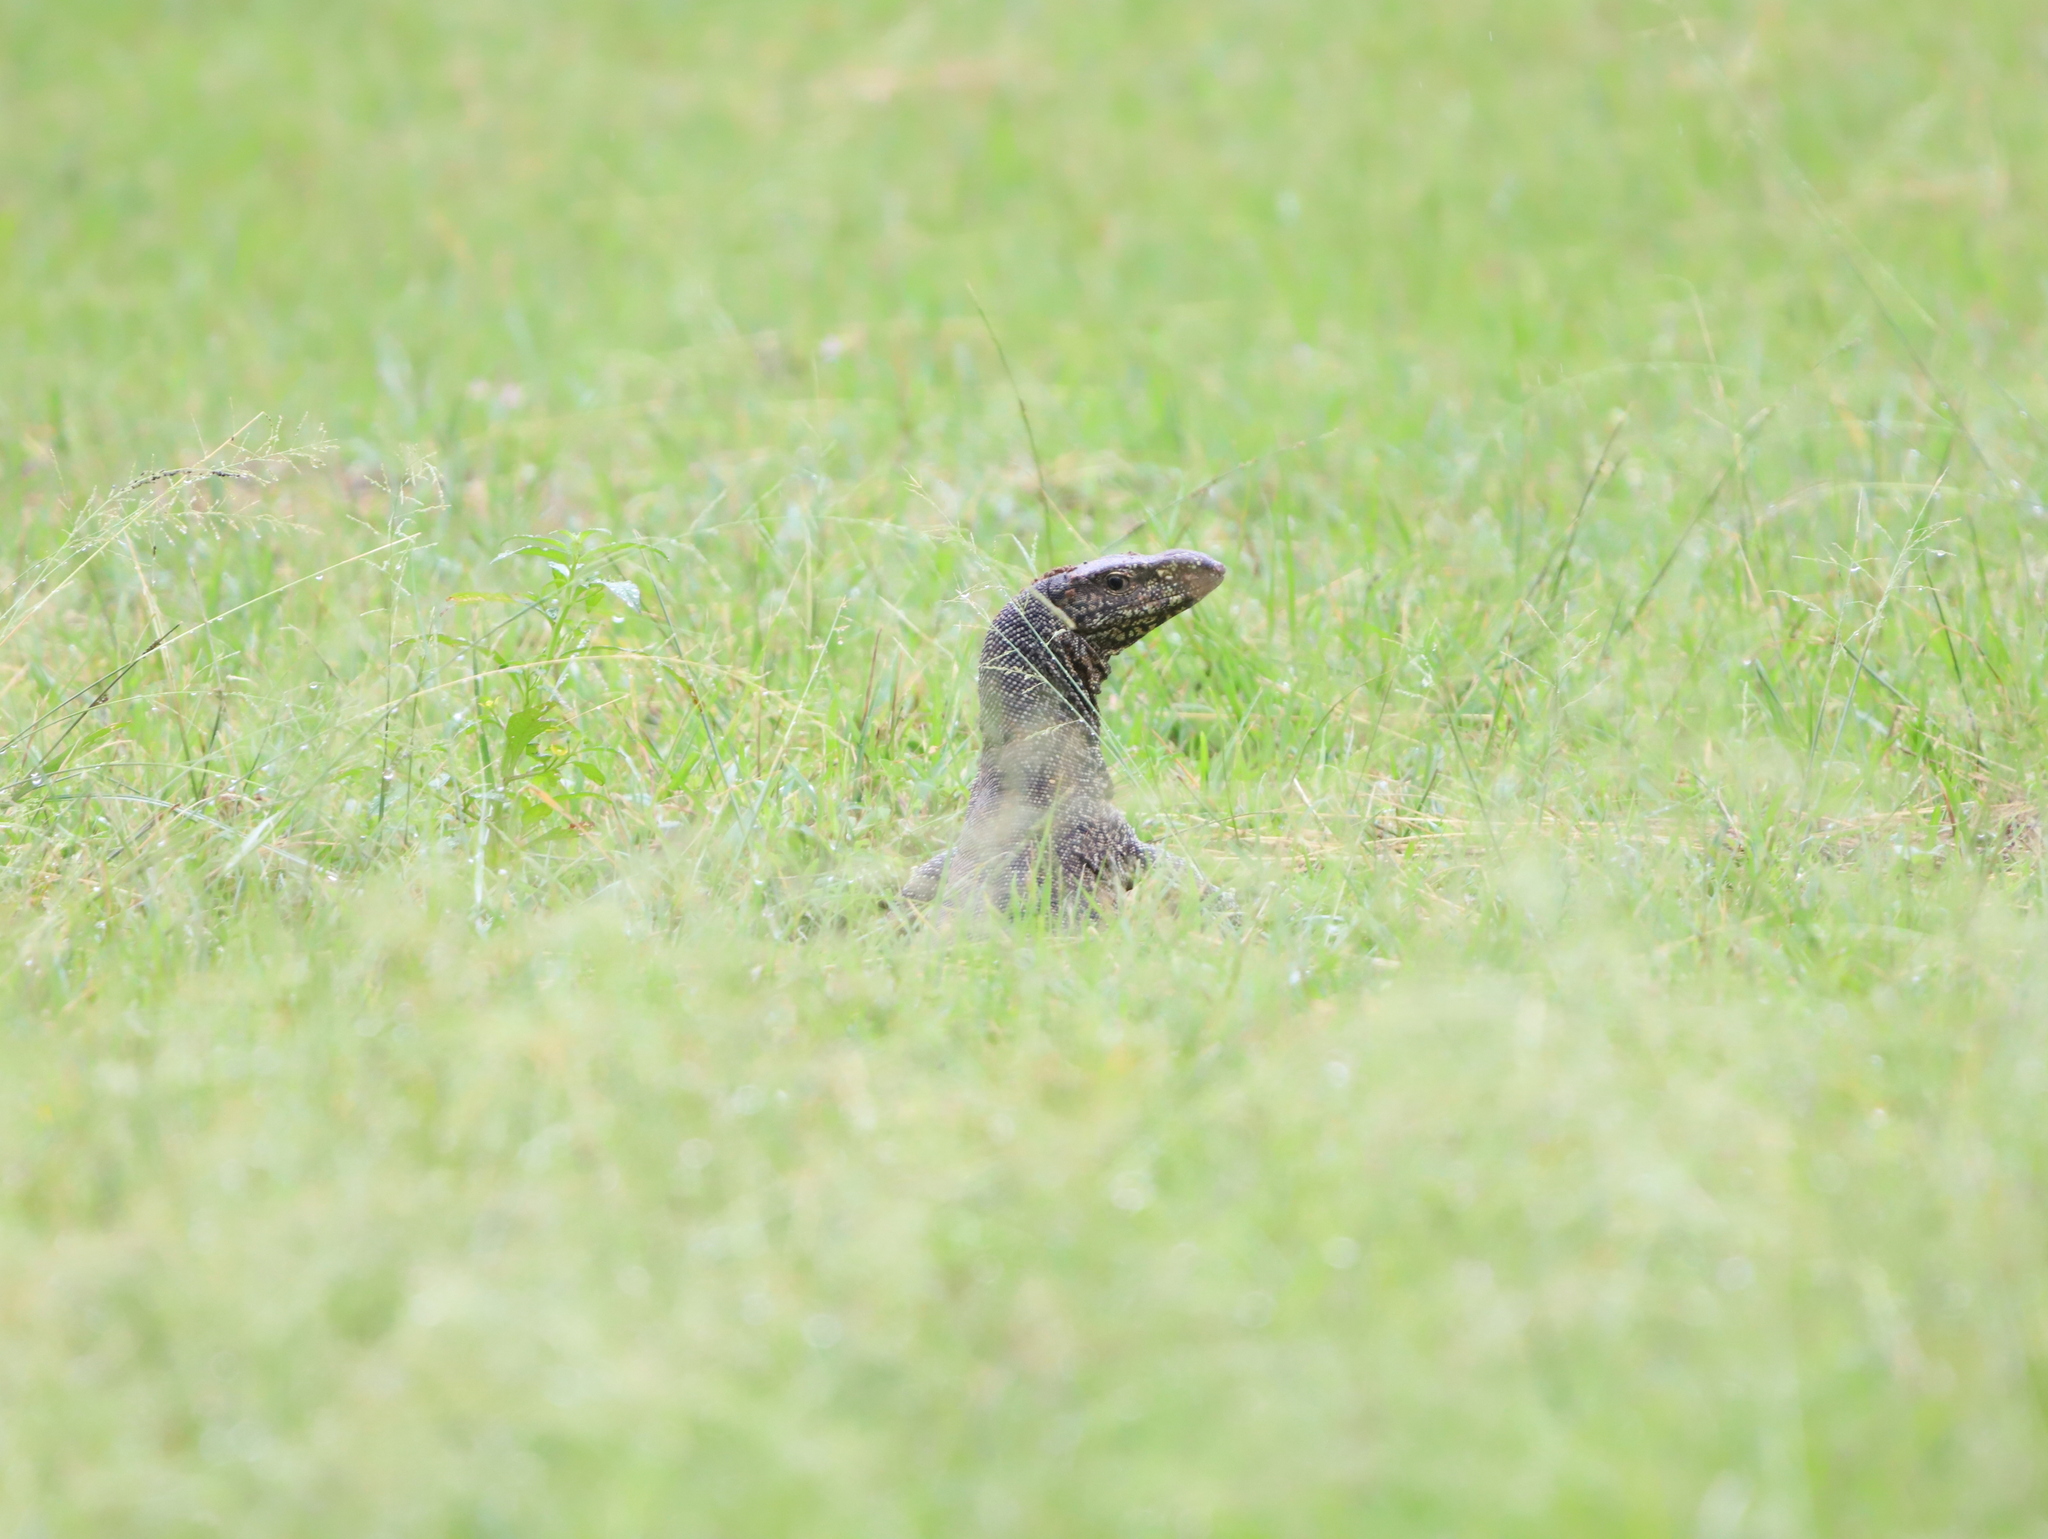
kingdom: Animalia
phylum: Chordata
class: Squamata
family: Varanidae
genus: Varanus
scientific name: Varanus bengalensis
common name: Bengal monitor
